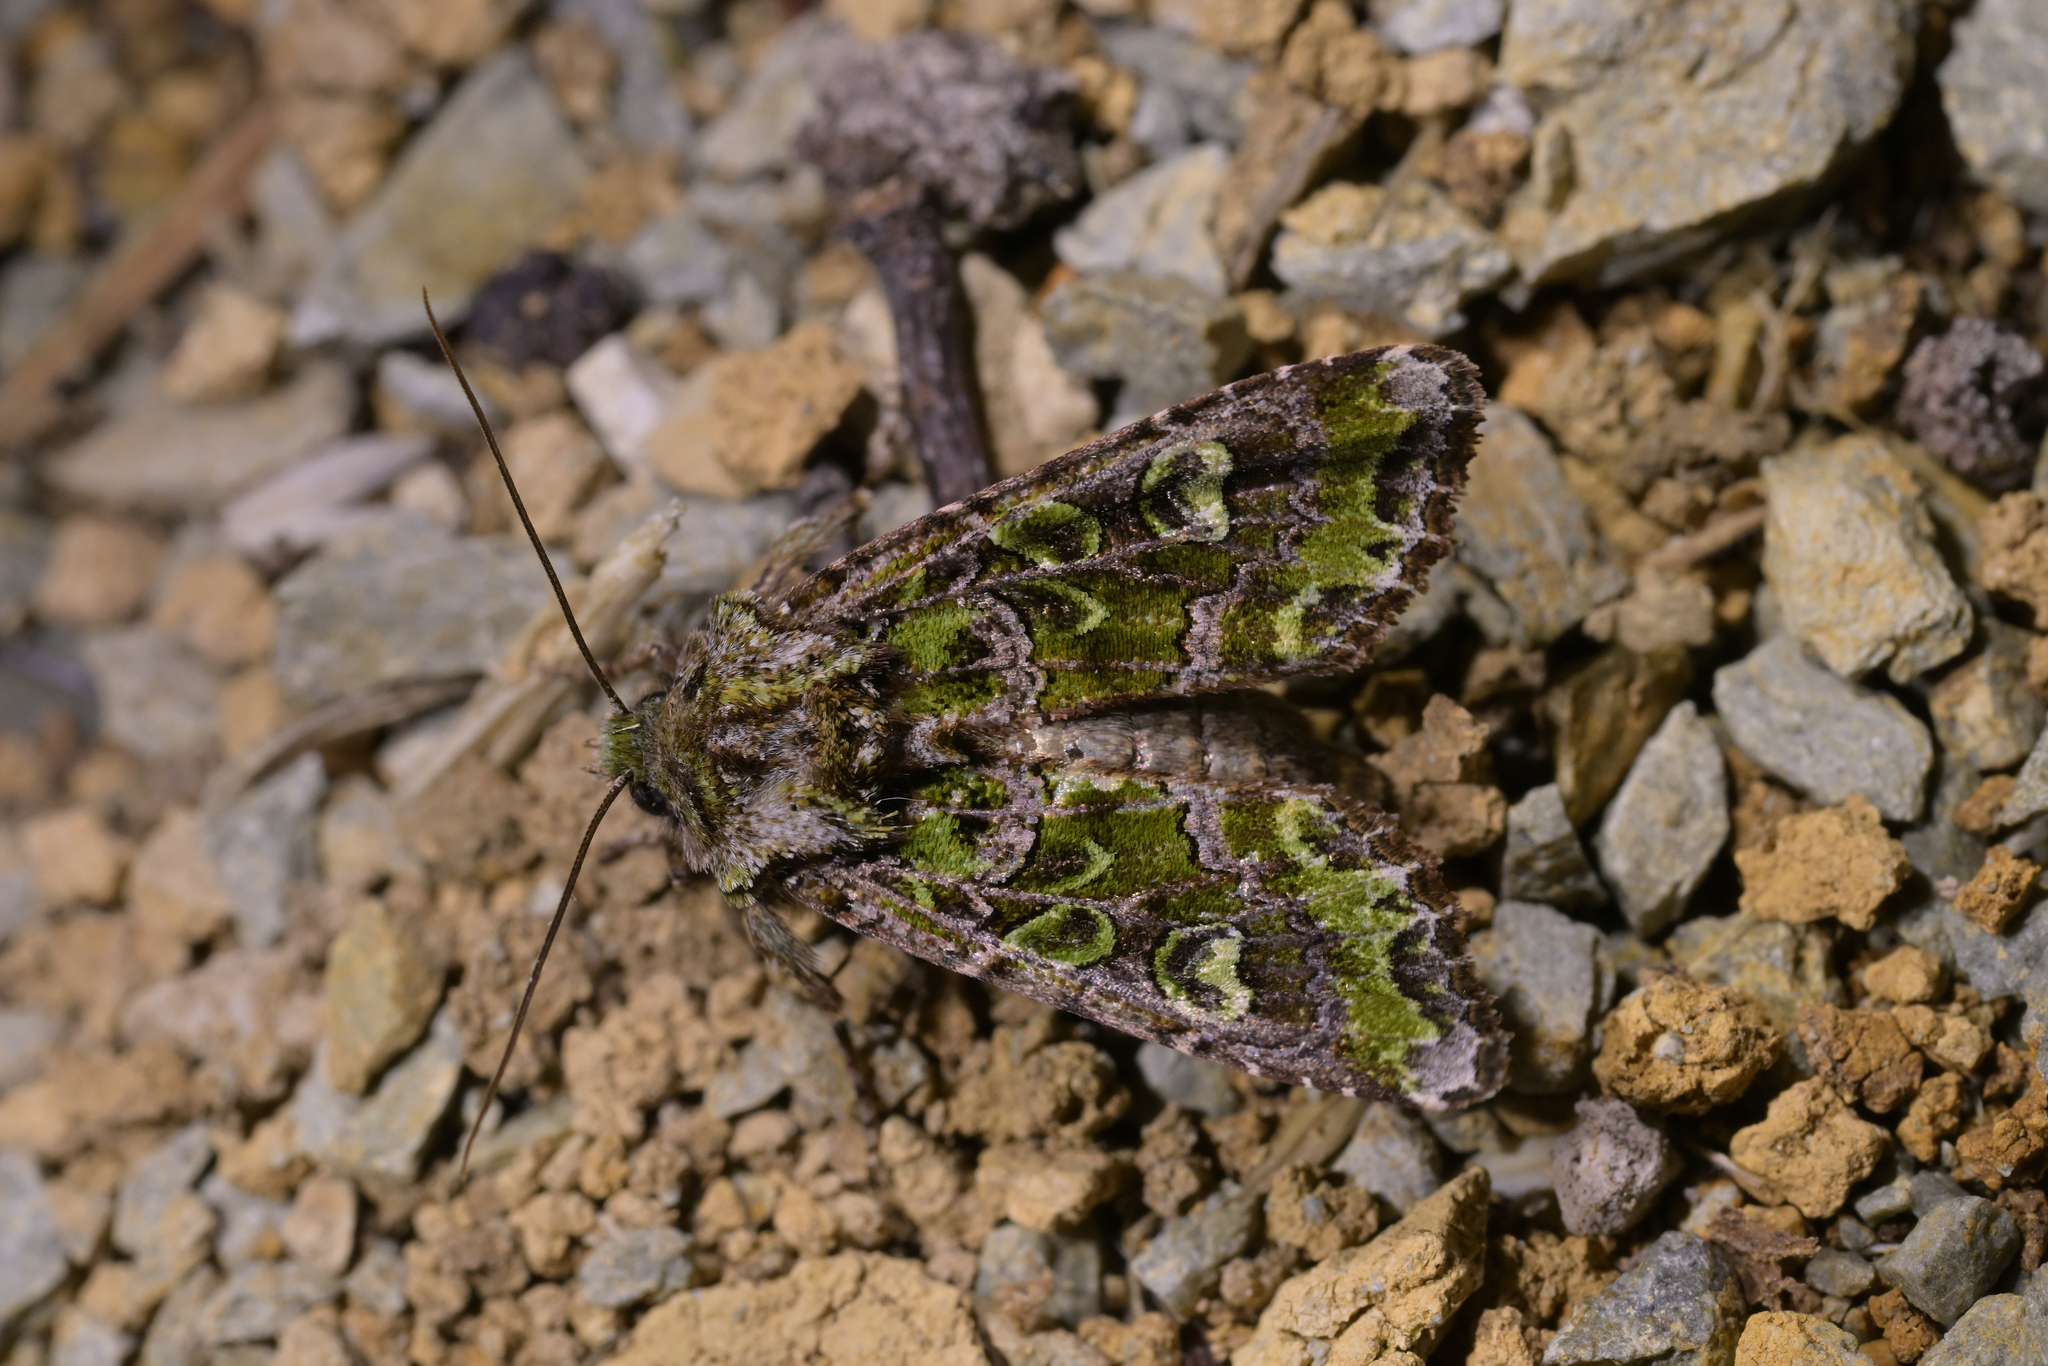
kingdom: Animalia
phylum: Arthropoda
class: Insecta
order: Lepidoptera
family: Noctuidae
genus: Ichneutica
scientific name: Ichneutica chlorodonta
